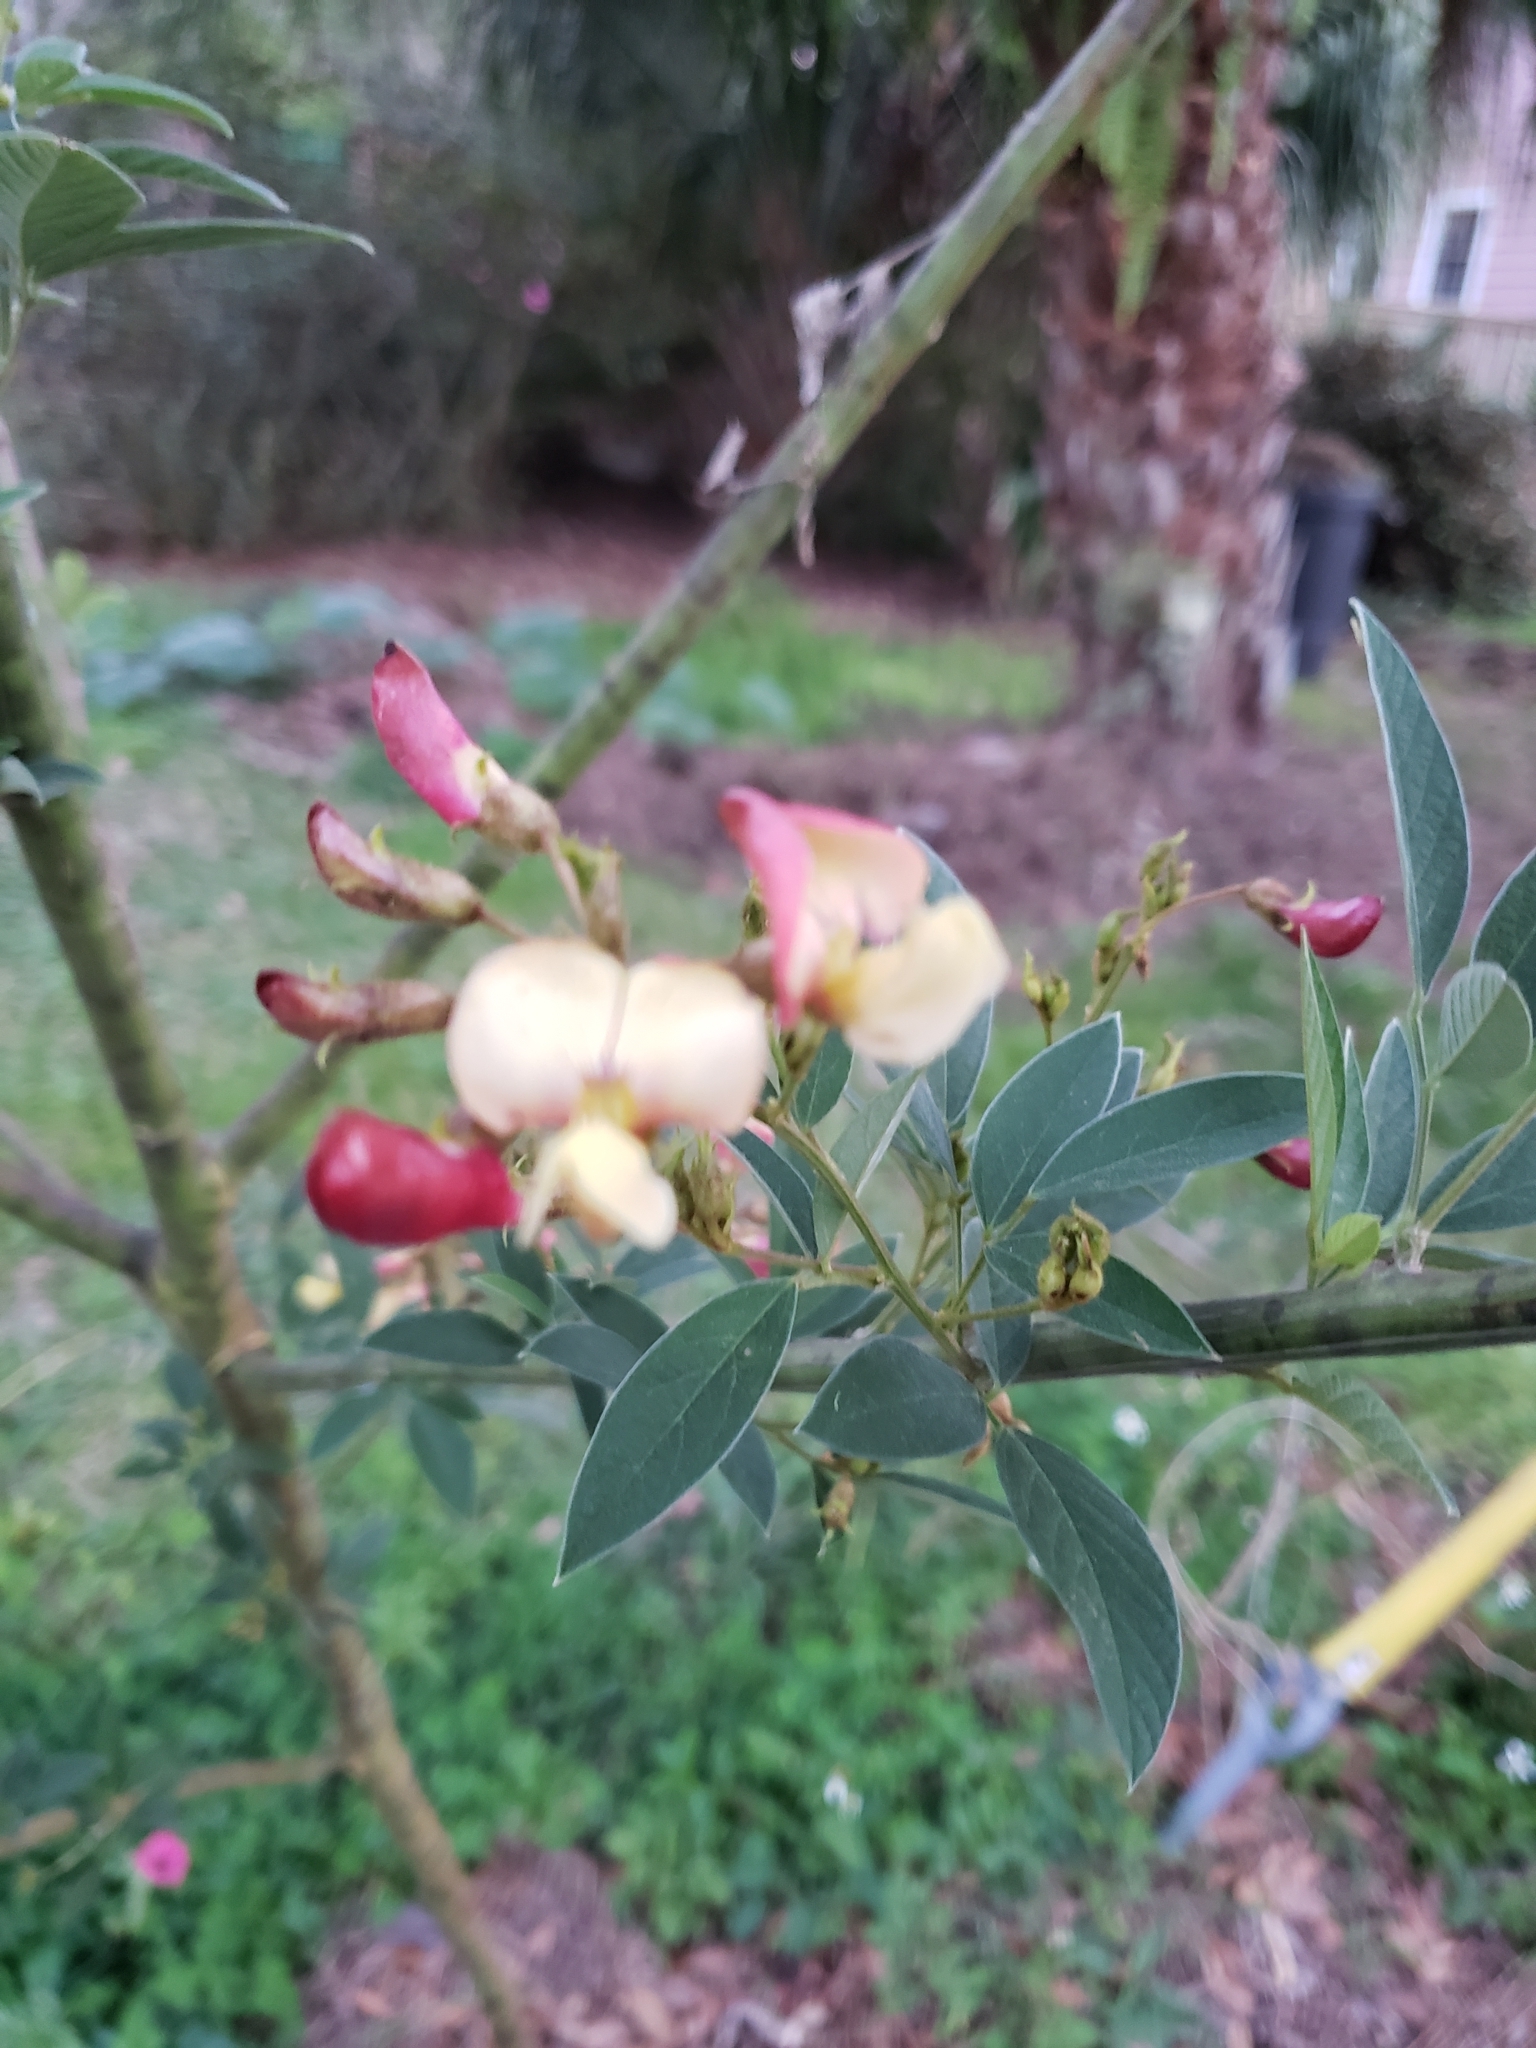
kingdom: Plantae
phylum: Tracheophyta
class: Magnoliopsida
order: Fabales
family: Fabaceae
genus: Cajanus
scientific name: Cajanus cajan
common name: Pigeonpea
